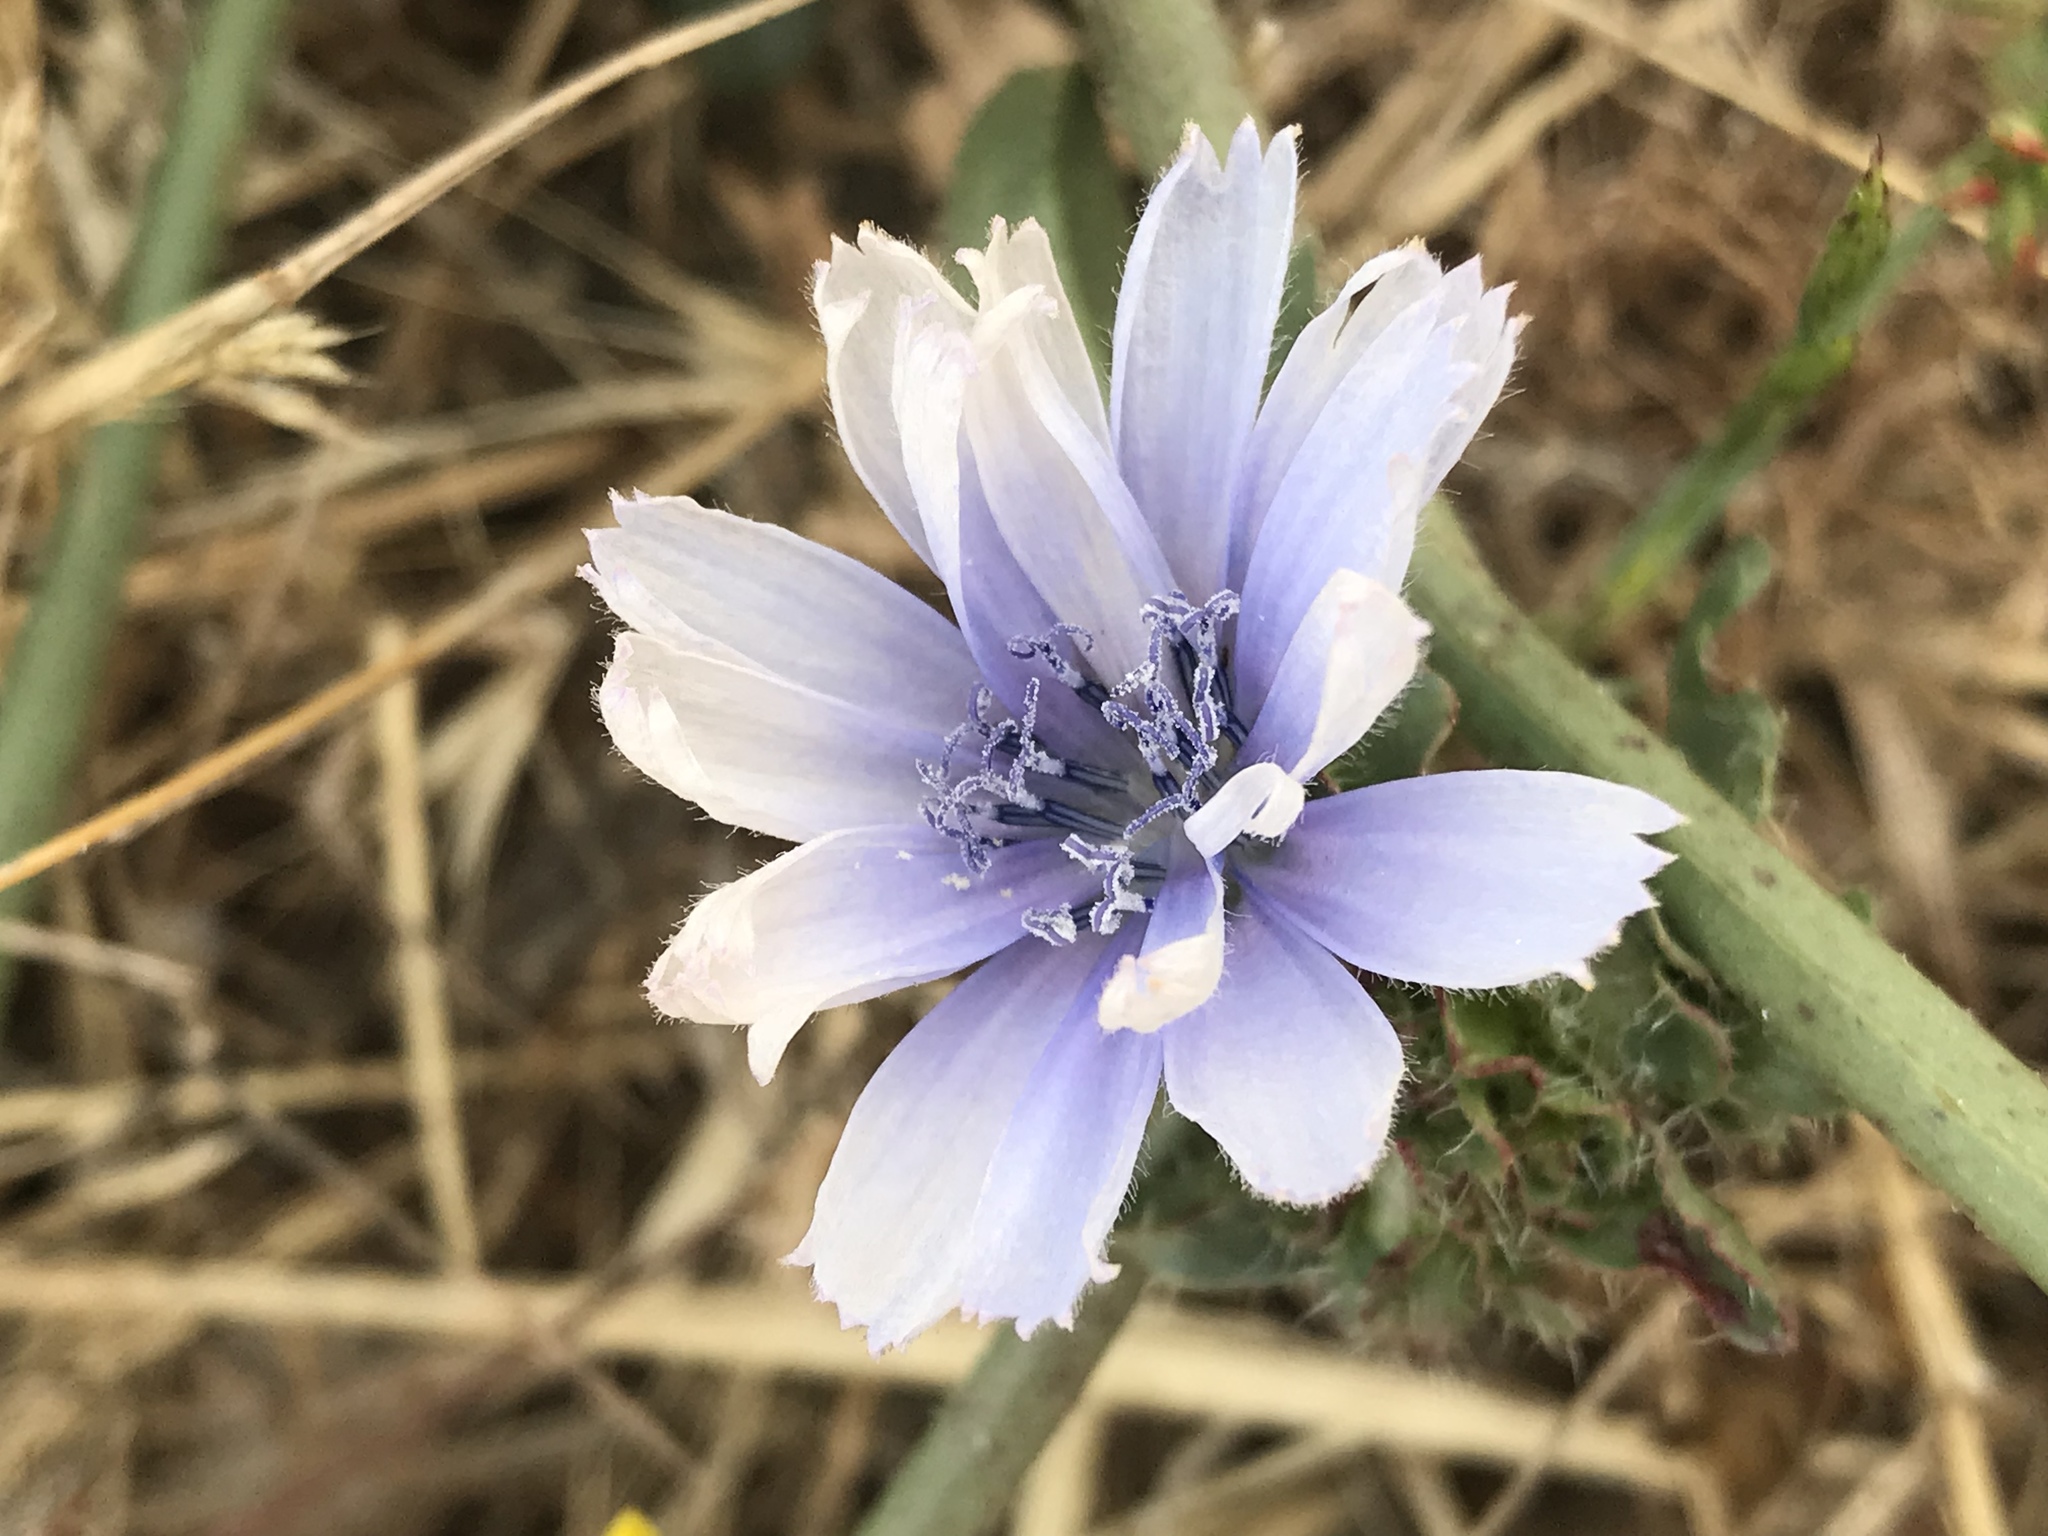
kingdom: Plantae
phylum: Tracheophyta
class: Magnoliopsida
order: Asterales
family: Asteraceae
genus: Cichorium
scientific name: Cichorium intybus
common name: Chicory
